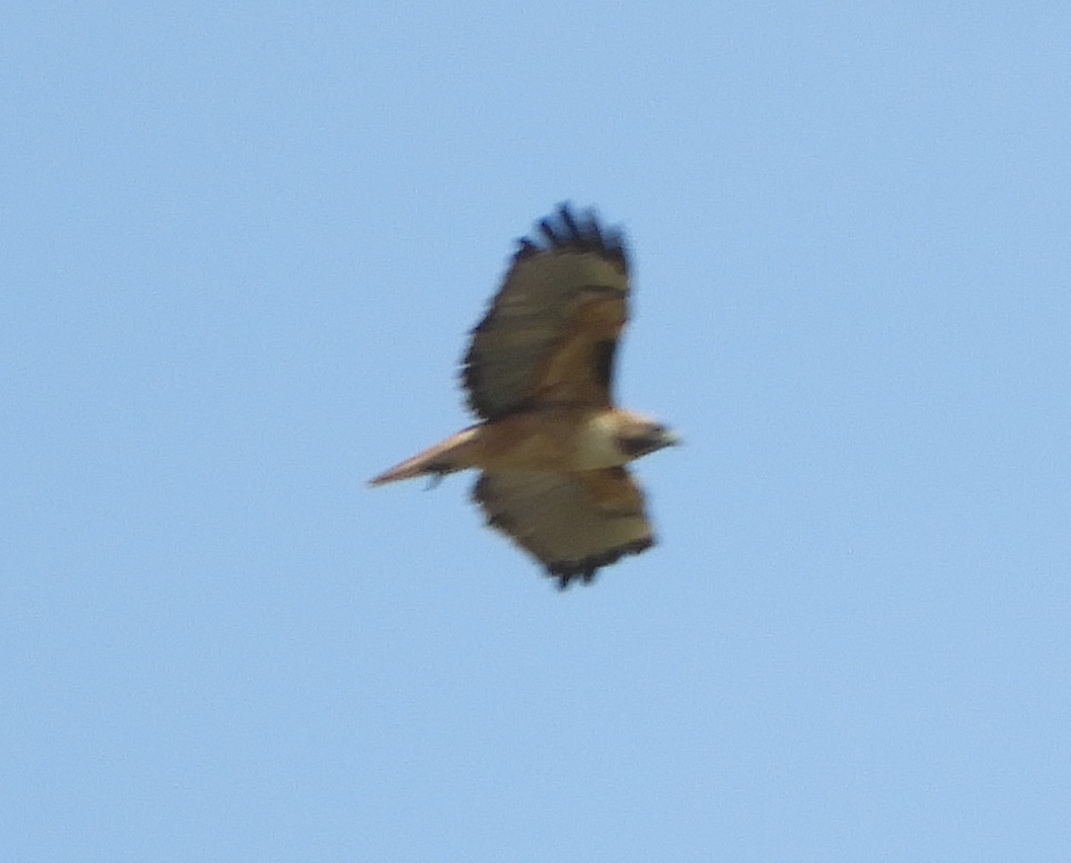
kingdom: Animalia
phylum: Chordata
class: Aves
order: Accipitriformes
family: Accipitridae
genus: Buteo
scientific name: Buteo jamaicensis
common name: Red-tailed hawk
